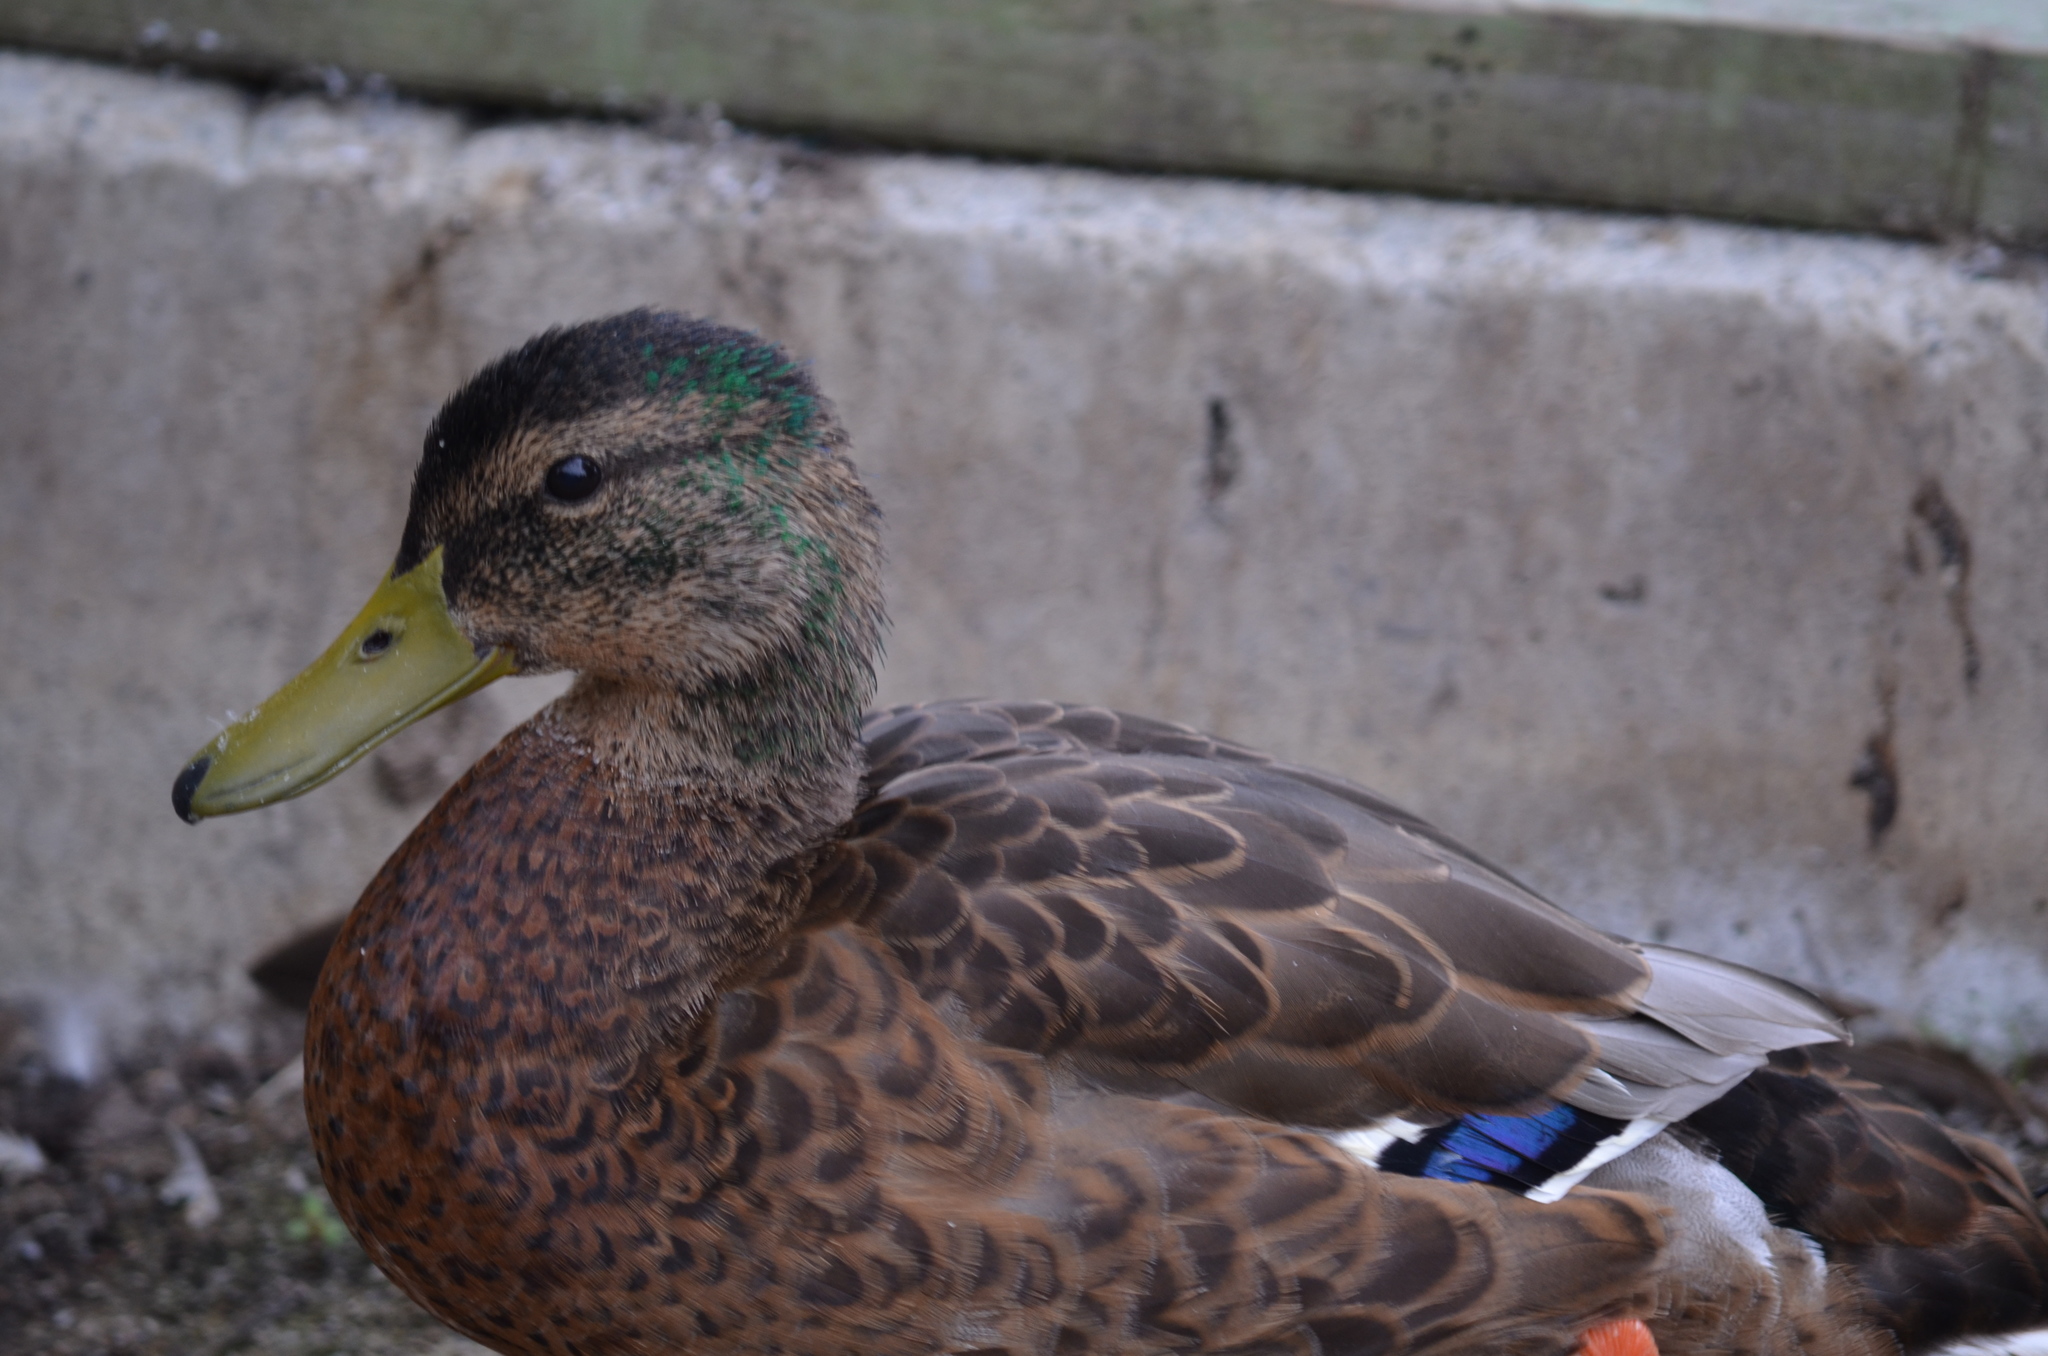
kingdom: Animalia
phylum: Chordata
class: Aves
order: Anseriformes
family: Anatidae
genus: Anas
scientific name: Anas platyrhynchos
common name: Mallard
